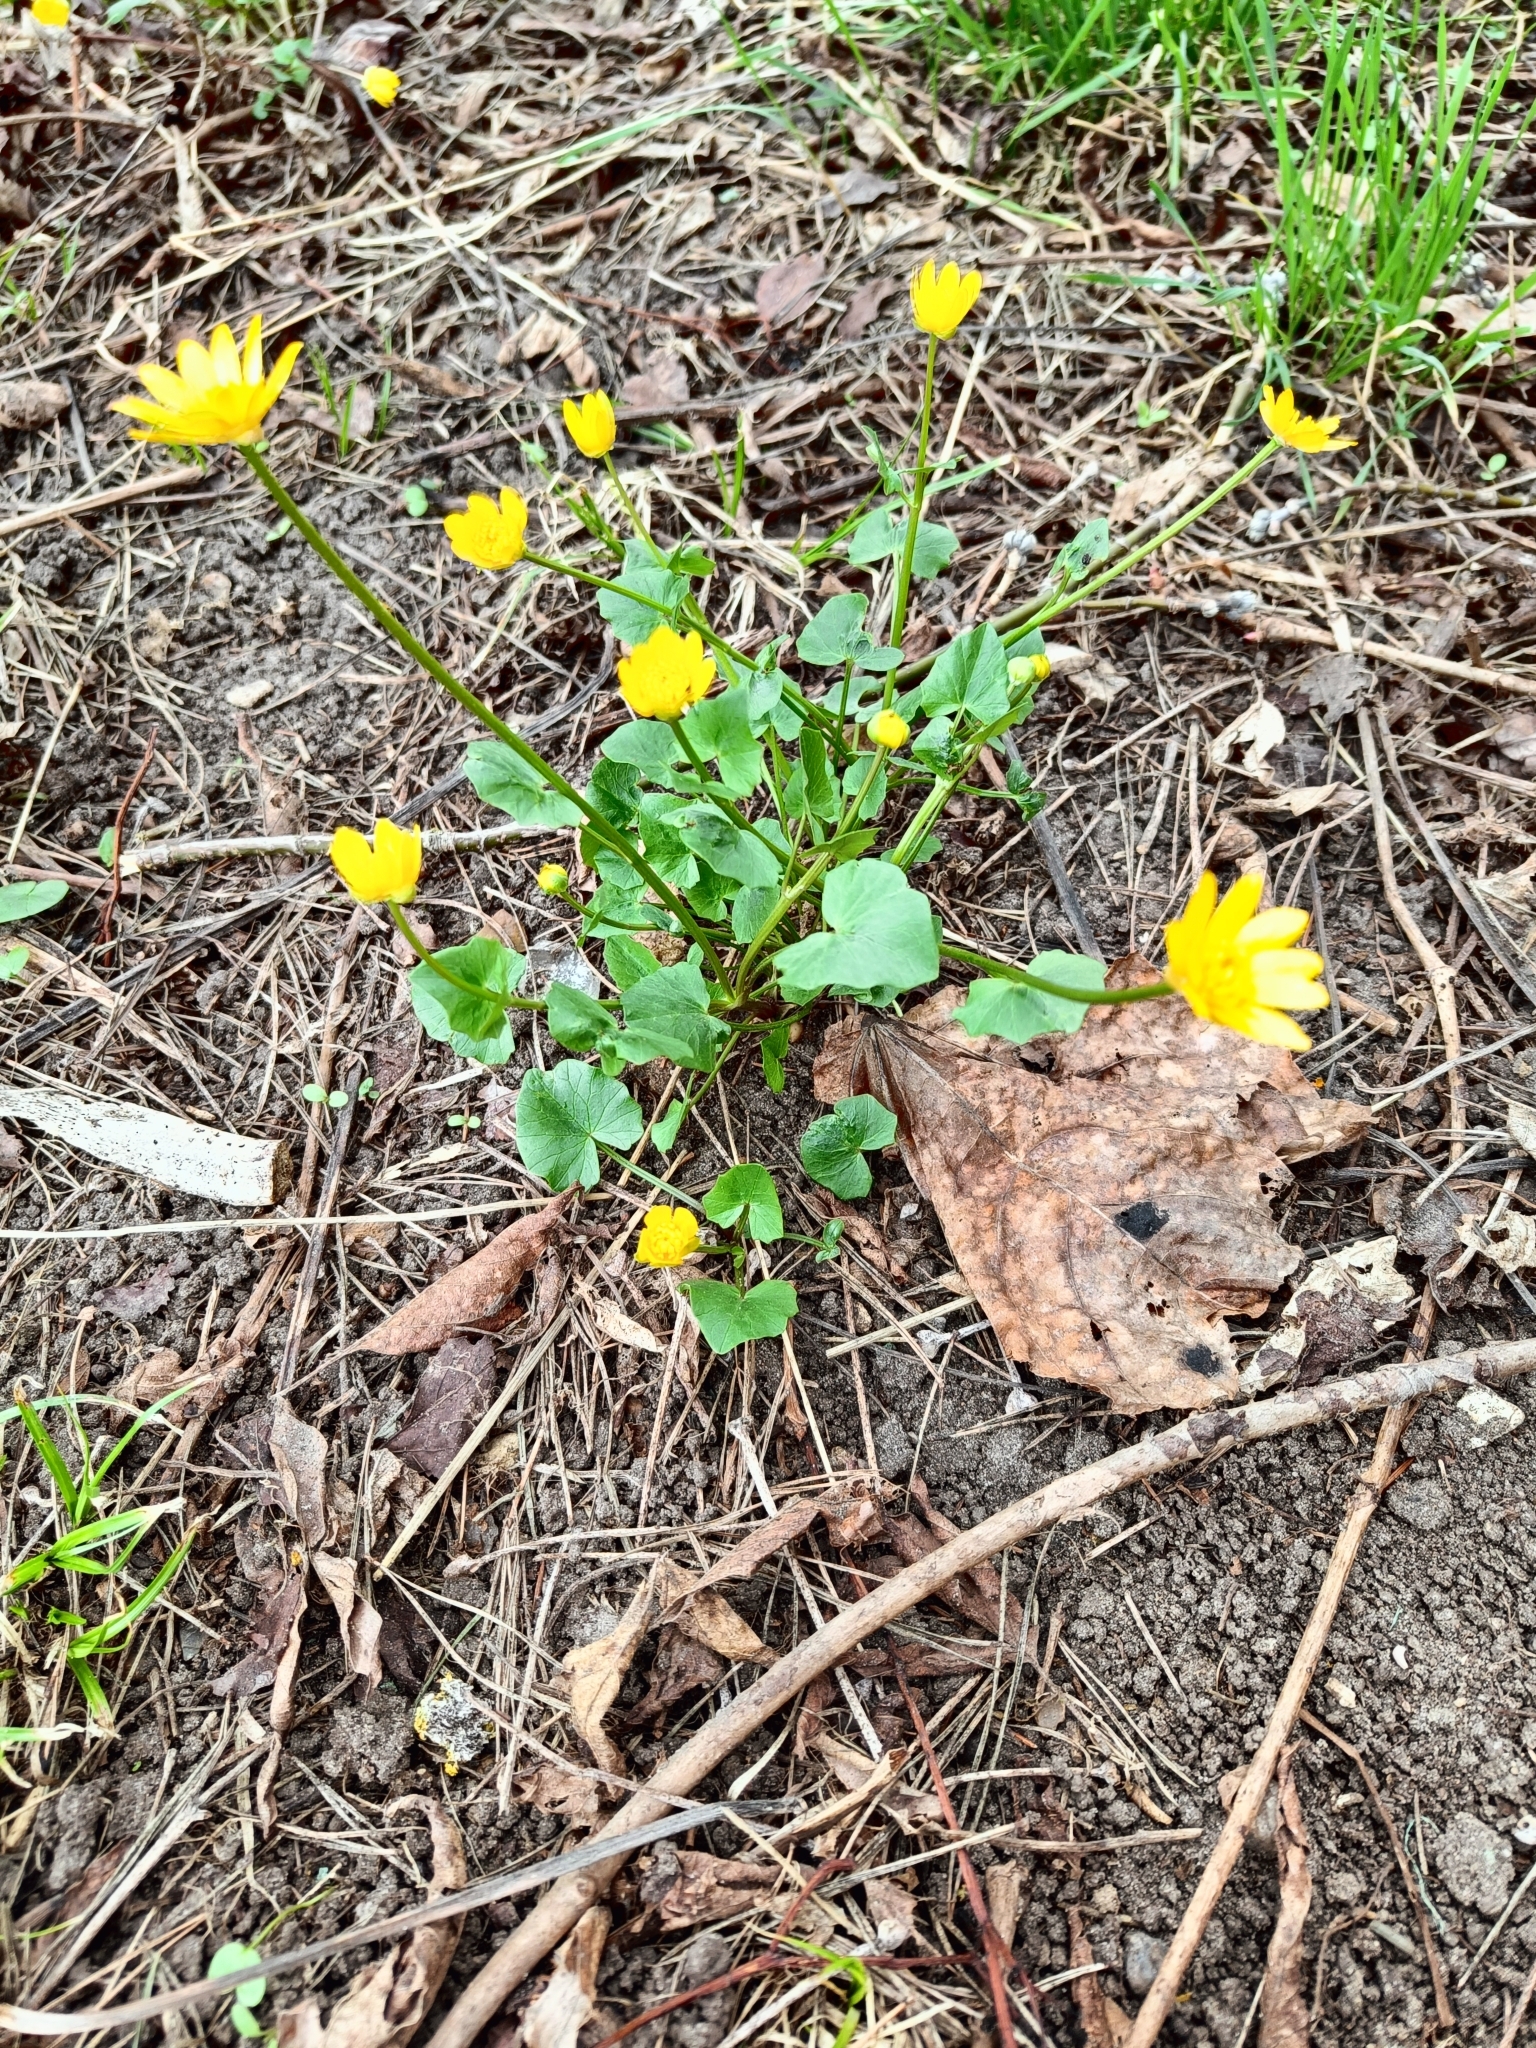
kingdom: Plantae
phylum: Tracheophyta
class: Magnoliopsida
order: Ranunculales
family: Ranunculaceae
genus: Ficaria
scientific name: Ficaria verna
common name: Lesser celandine
